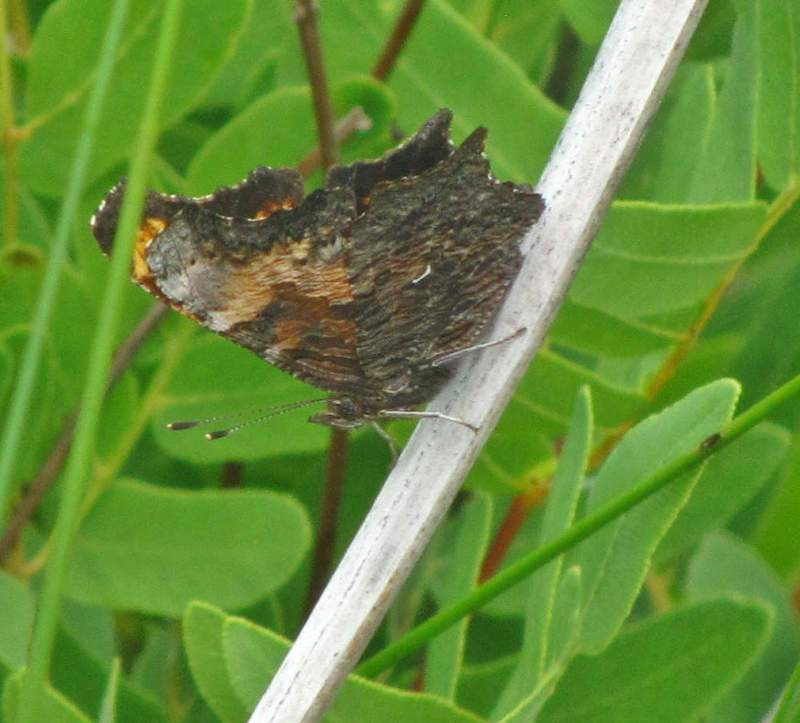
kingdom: Animalia
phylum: Arthropoda
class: Insecta
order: Lepidoptera
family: Nymphalidae
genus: Polygonia
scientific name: Polygonia progne
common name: Gray comma
